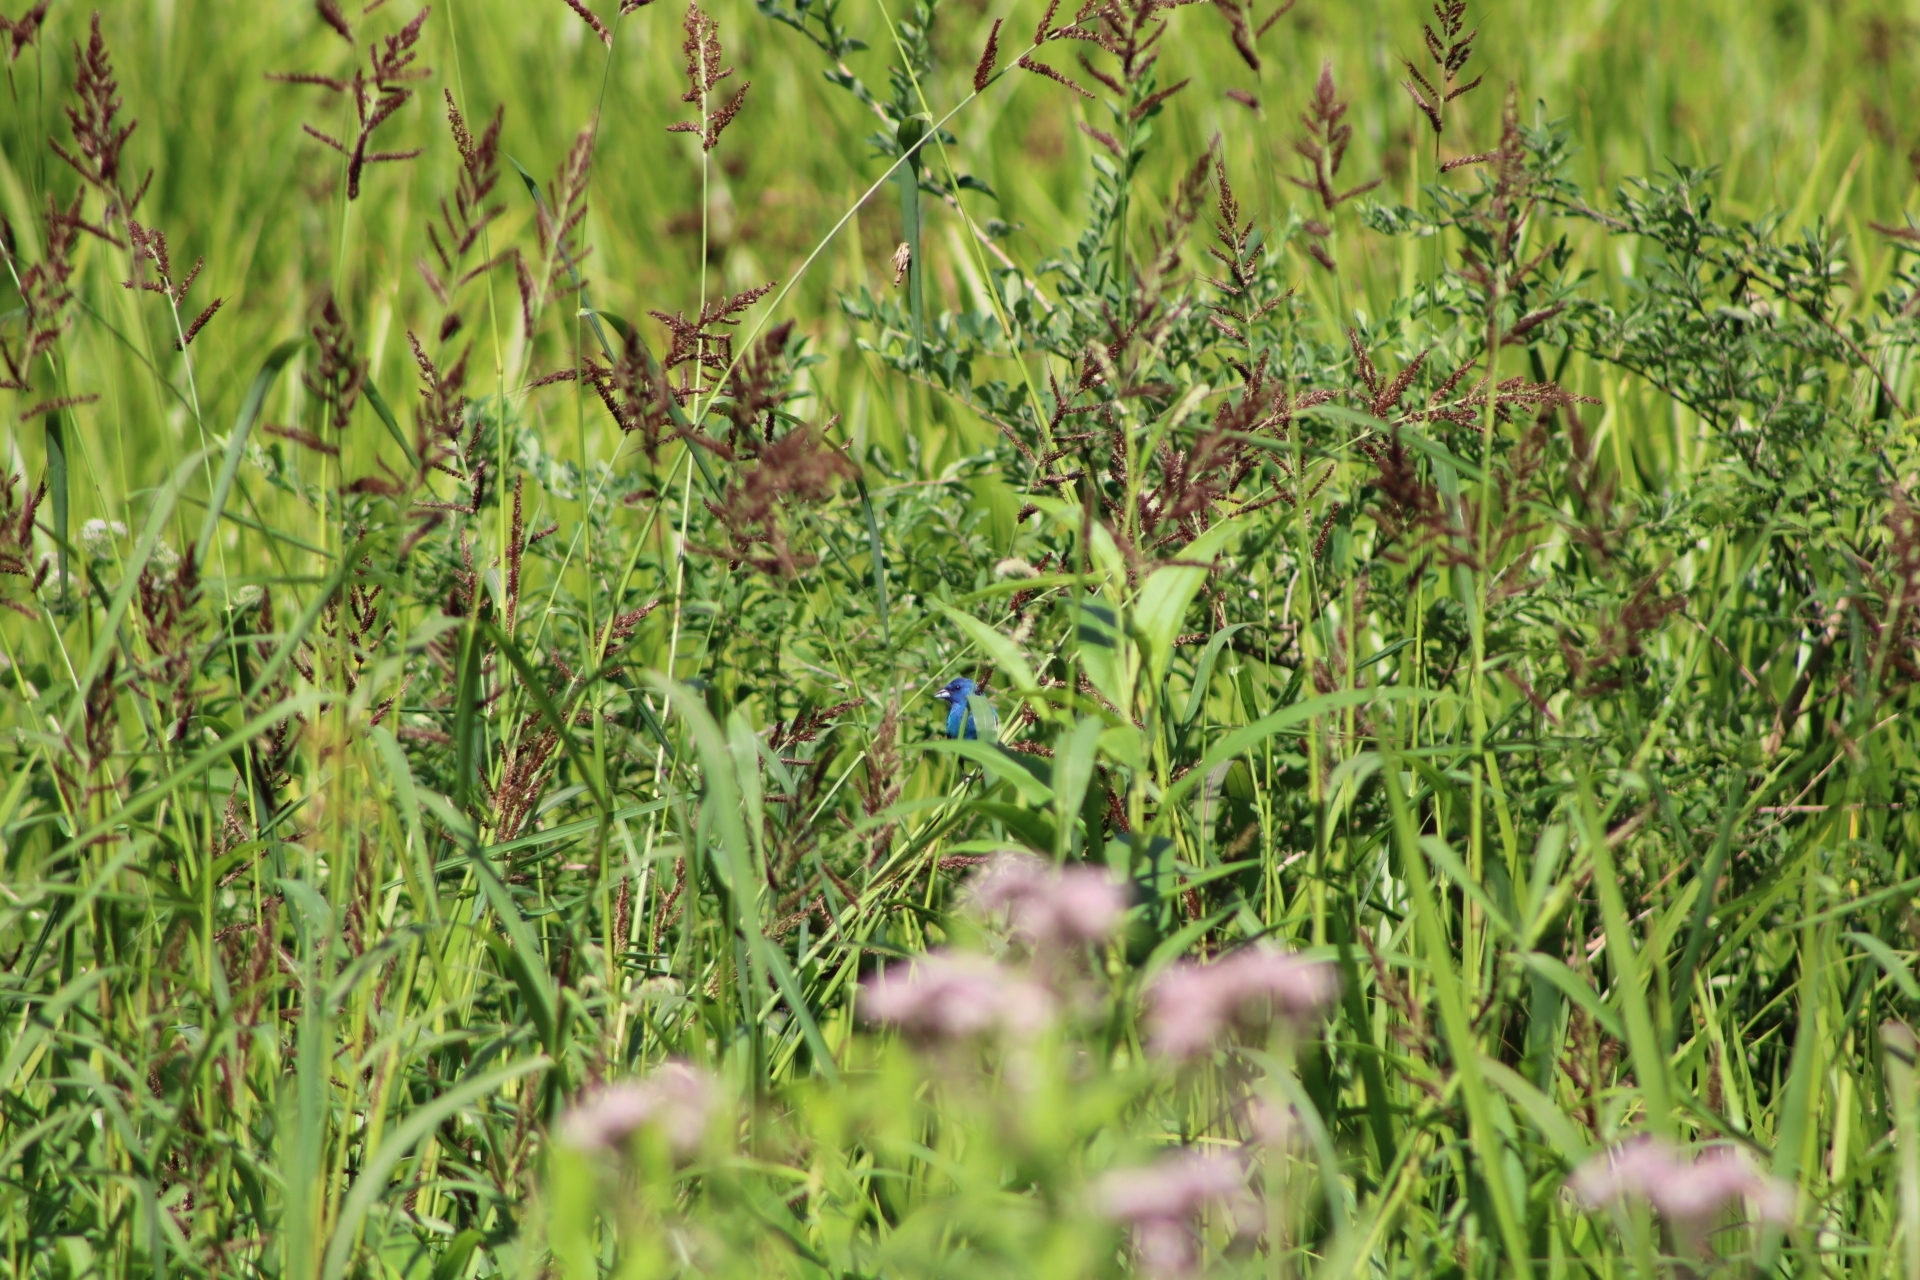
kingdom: Animalia
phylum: Chordata
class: Aves
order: Passeriformes
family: Cardinalidae
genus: Passerina
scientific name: Passerina cyanea
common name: Indigo bunting
